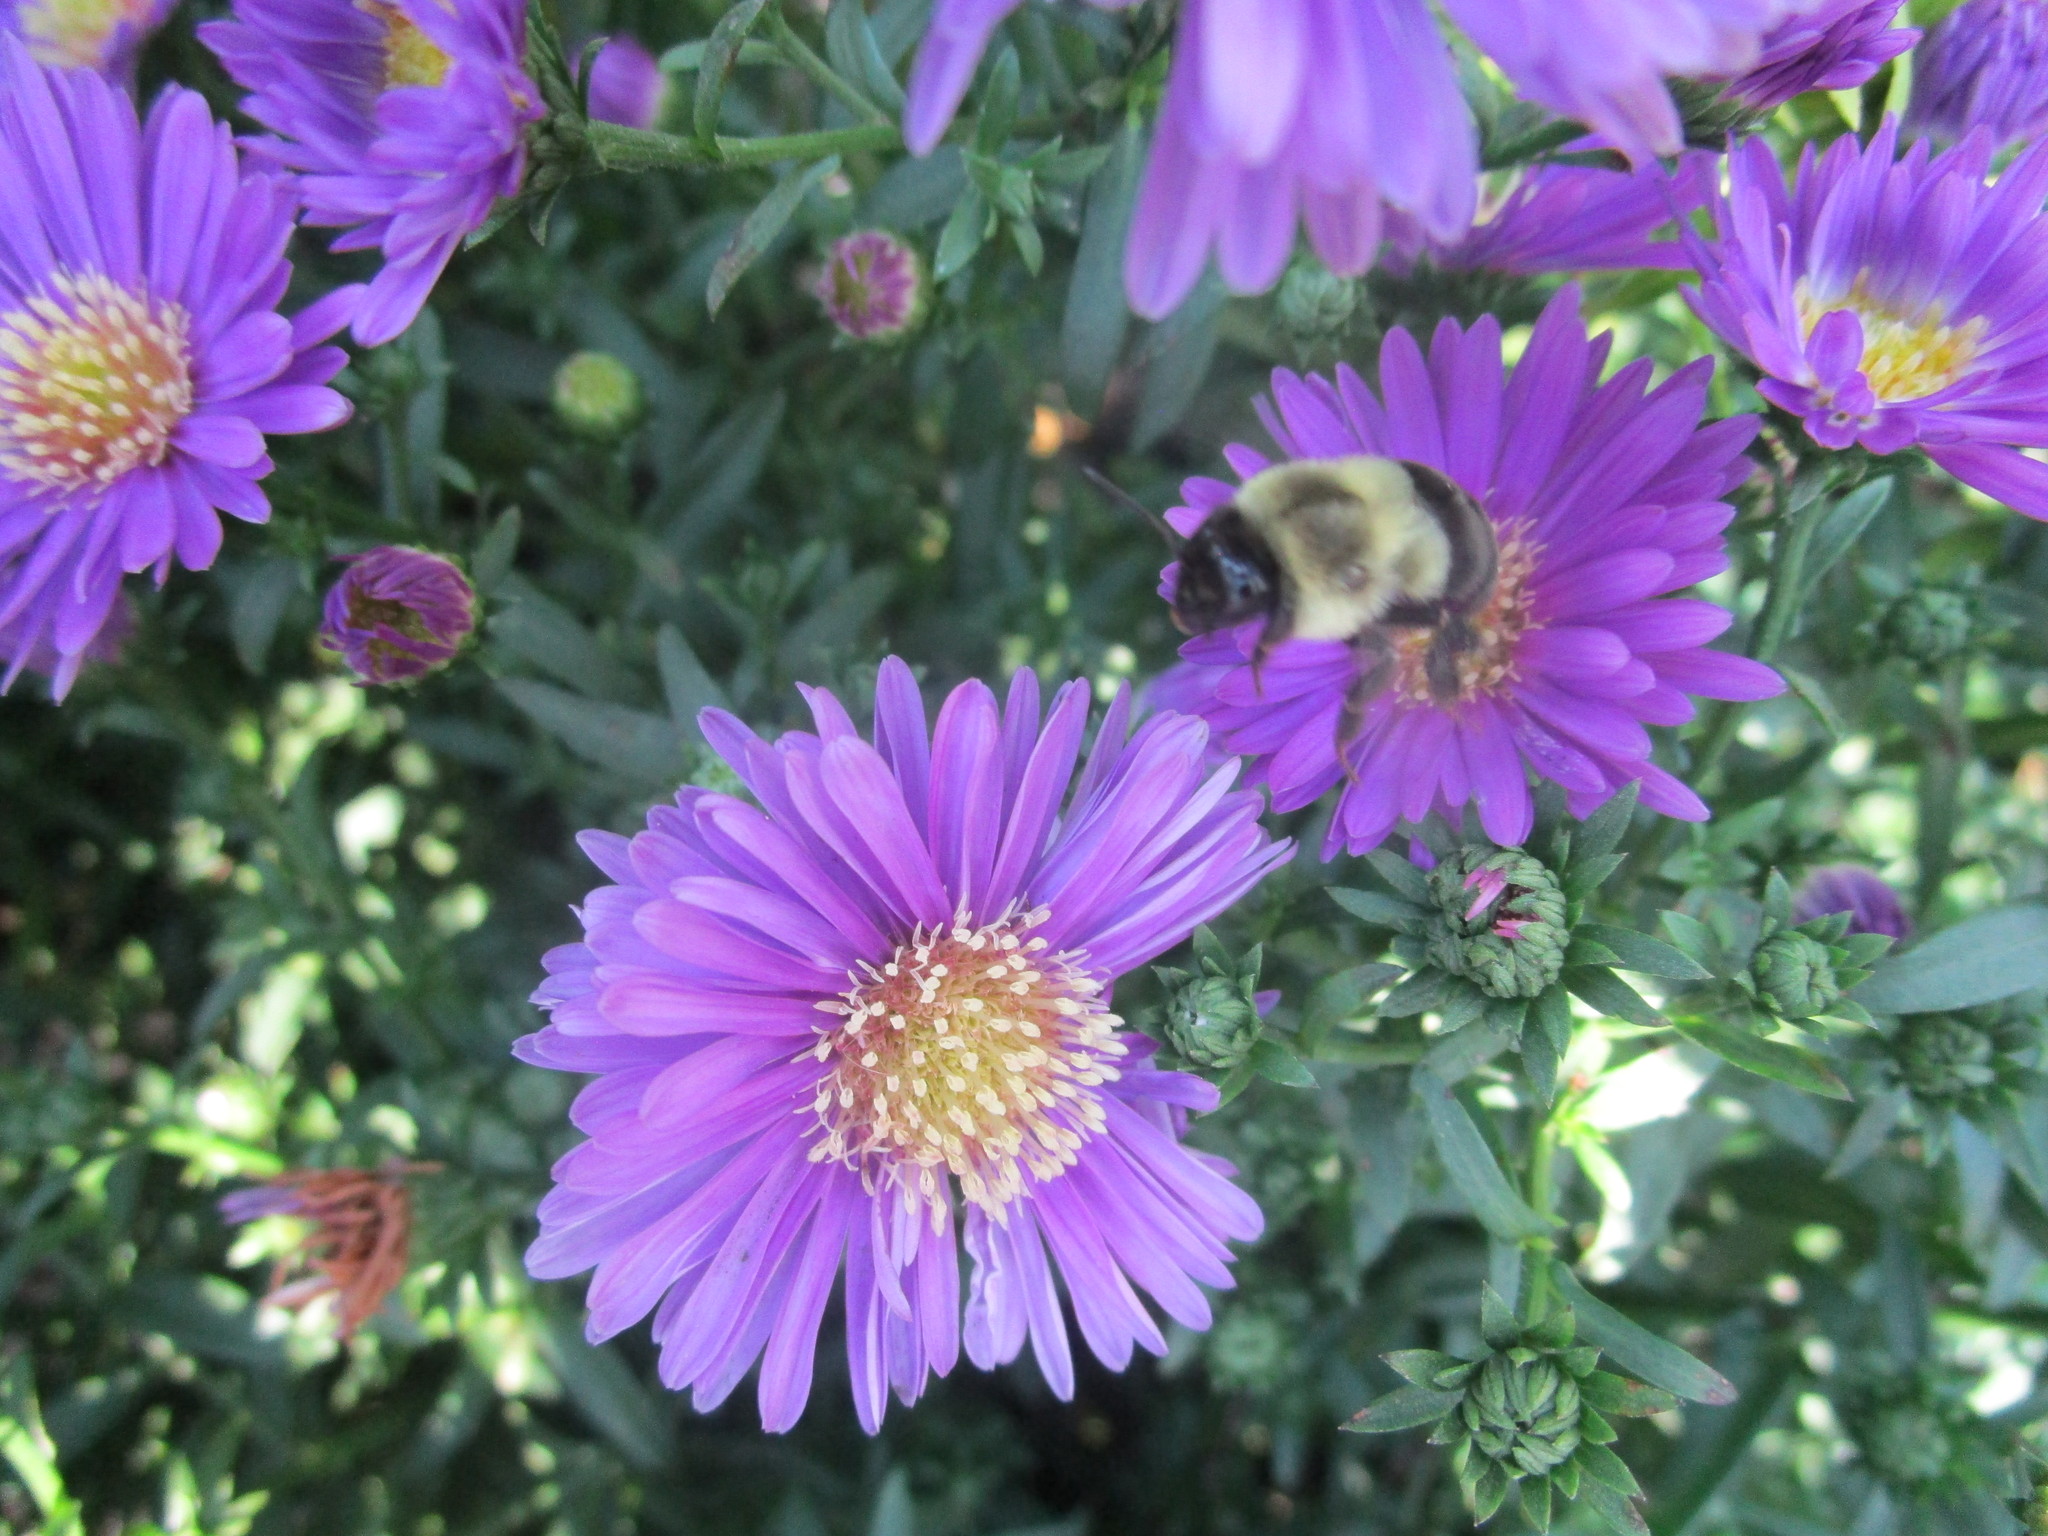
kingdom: Animalia
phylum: Arthropoda
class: Insecta
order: Hymenoptera
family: Apidae
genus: Bombus
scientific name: Bombus impatiens
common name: Common eastern bumble bee
